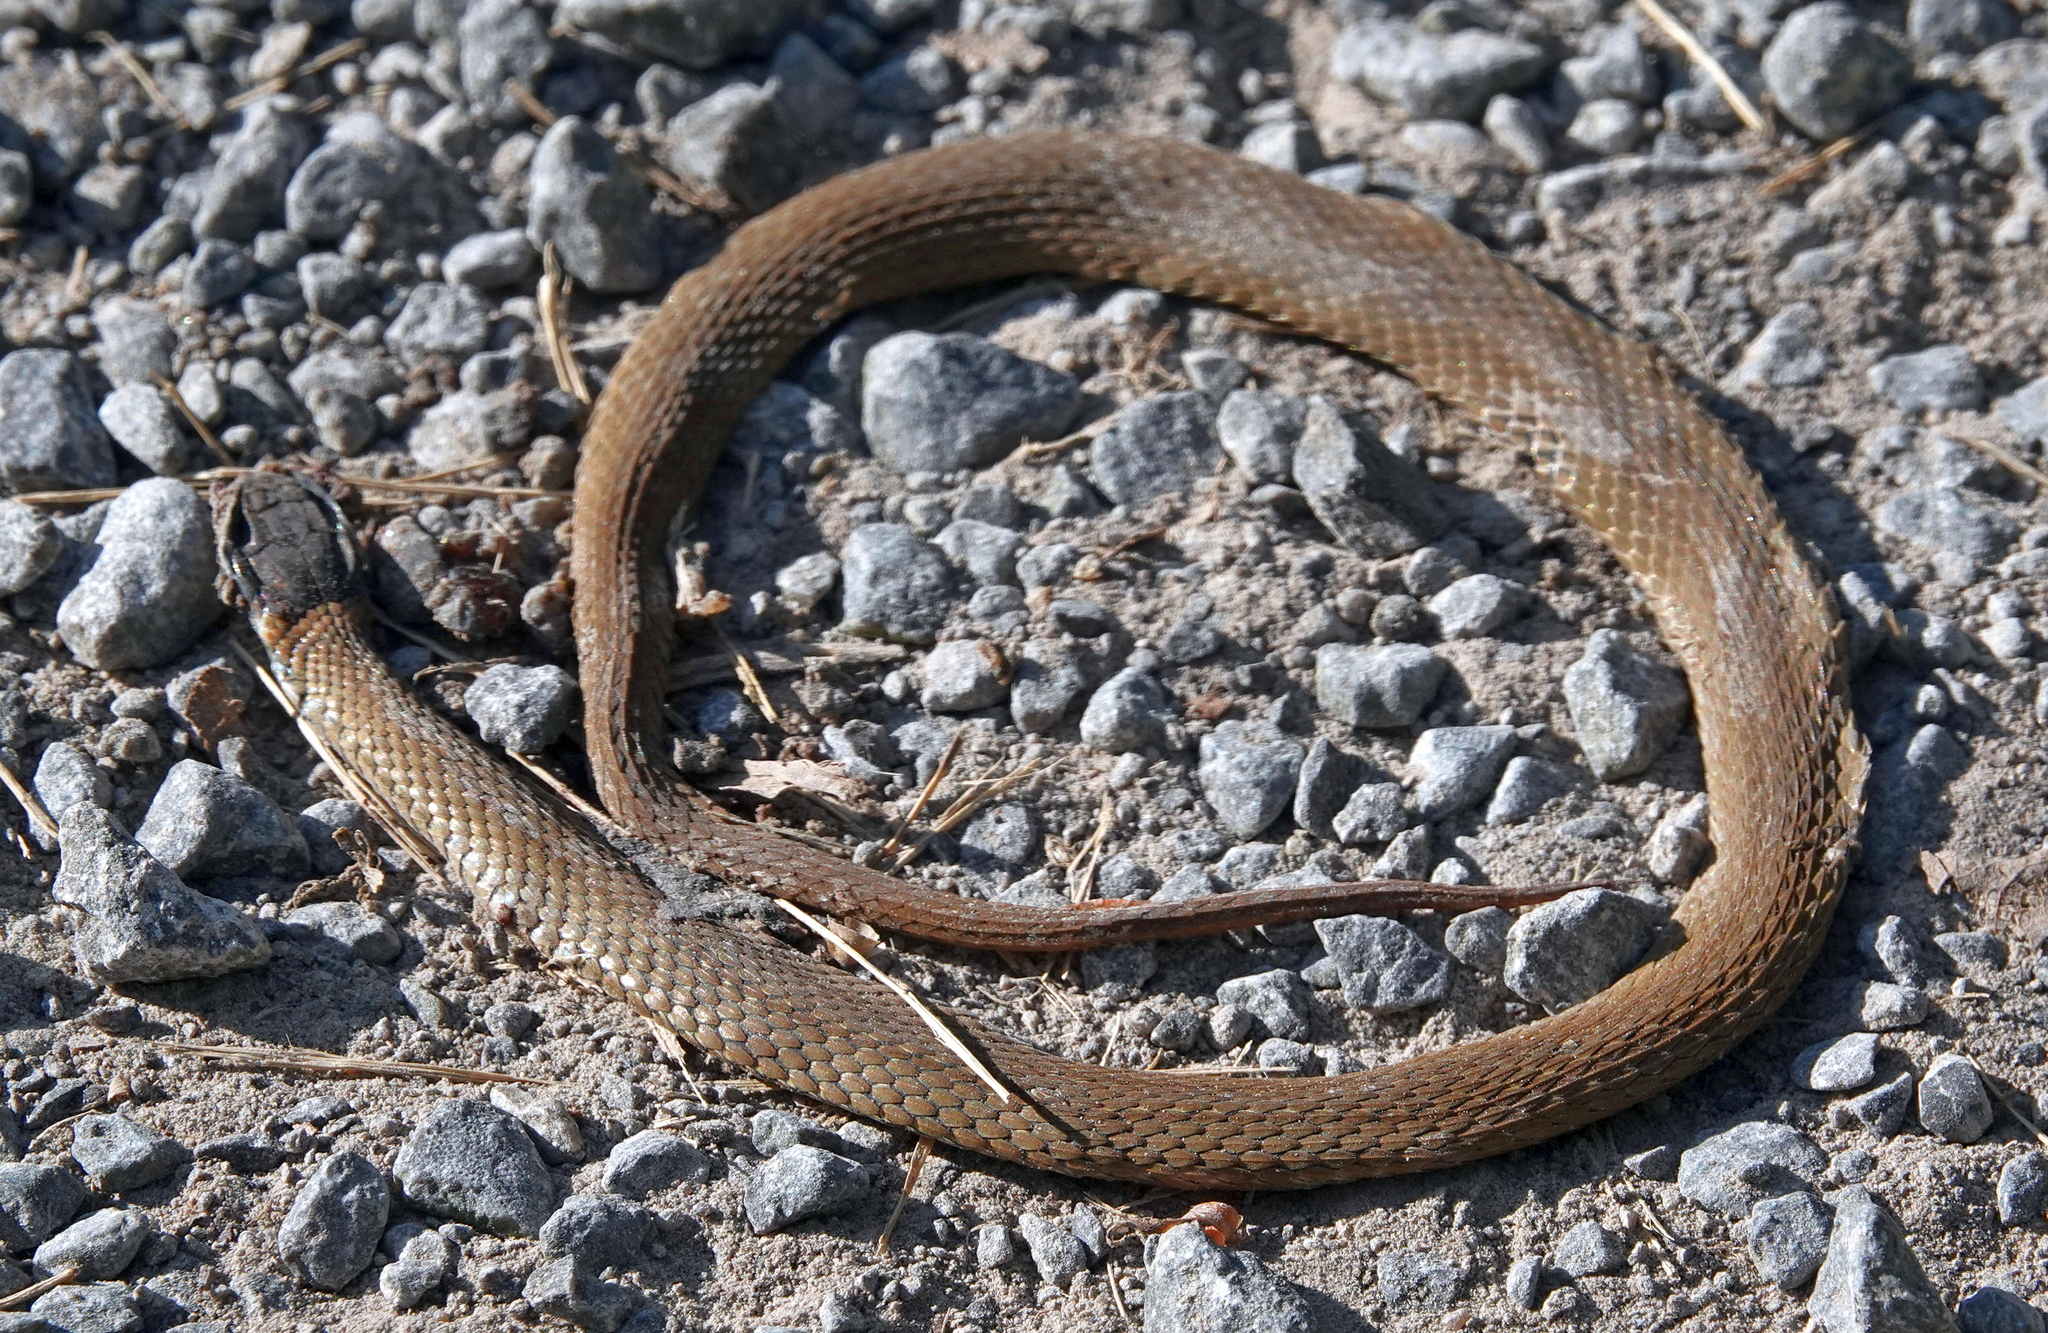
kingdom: Animalia
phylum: Chordata
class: Squamata
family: Colubridae
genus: Storeria
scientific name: Storeria occipitomaculata
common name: Redbelly snake
